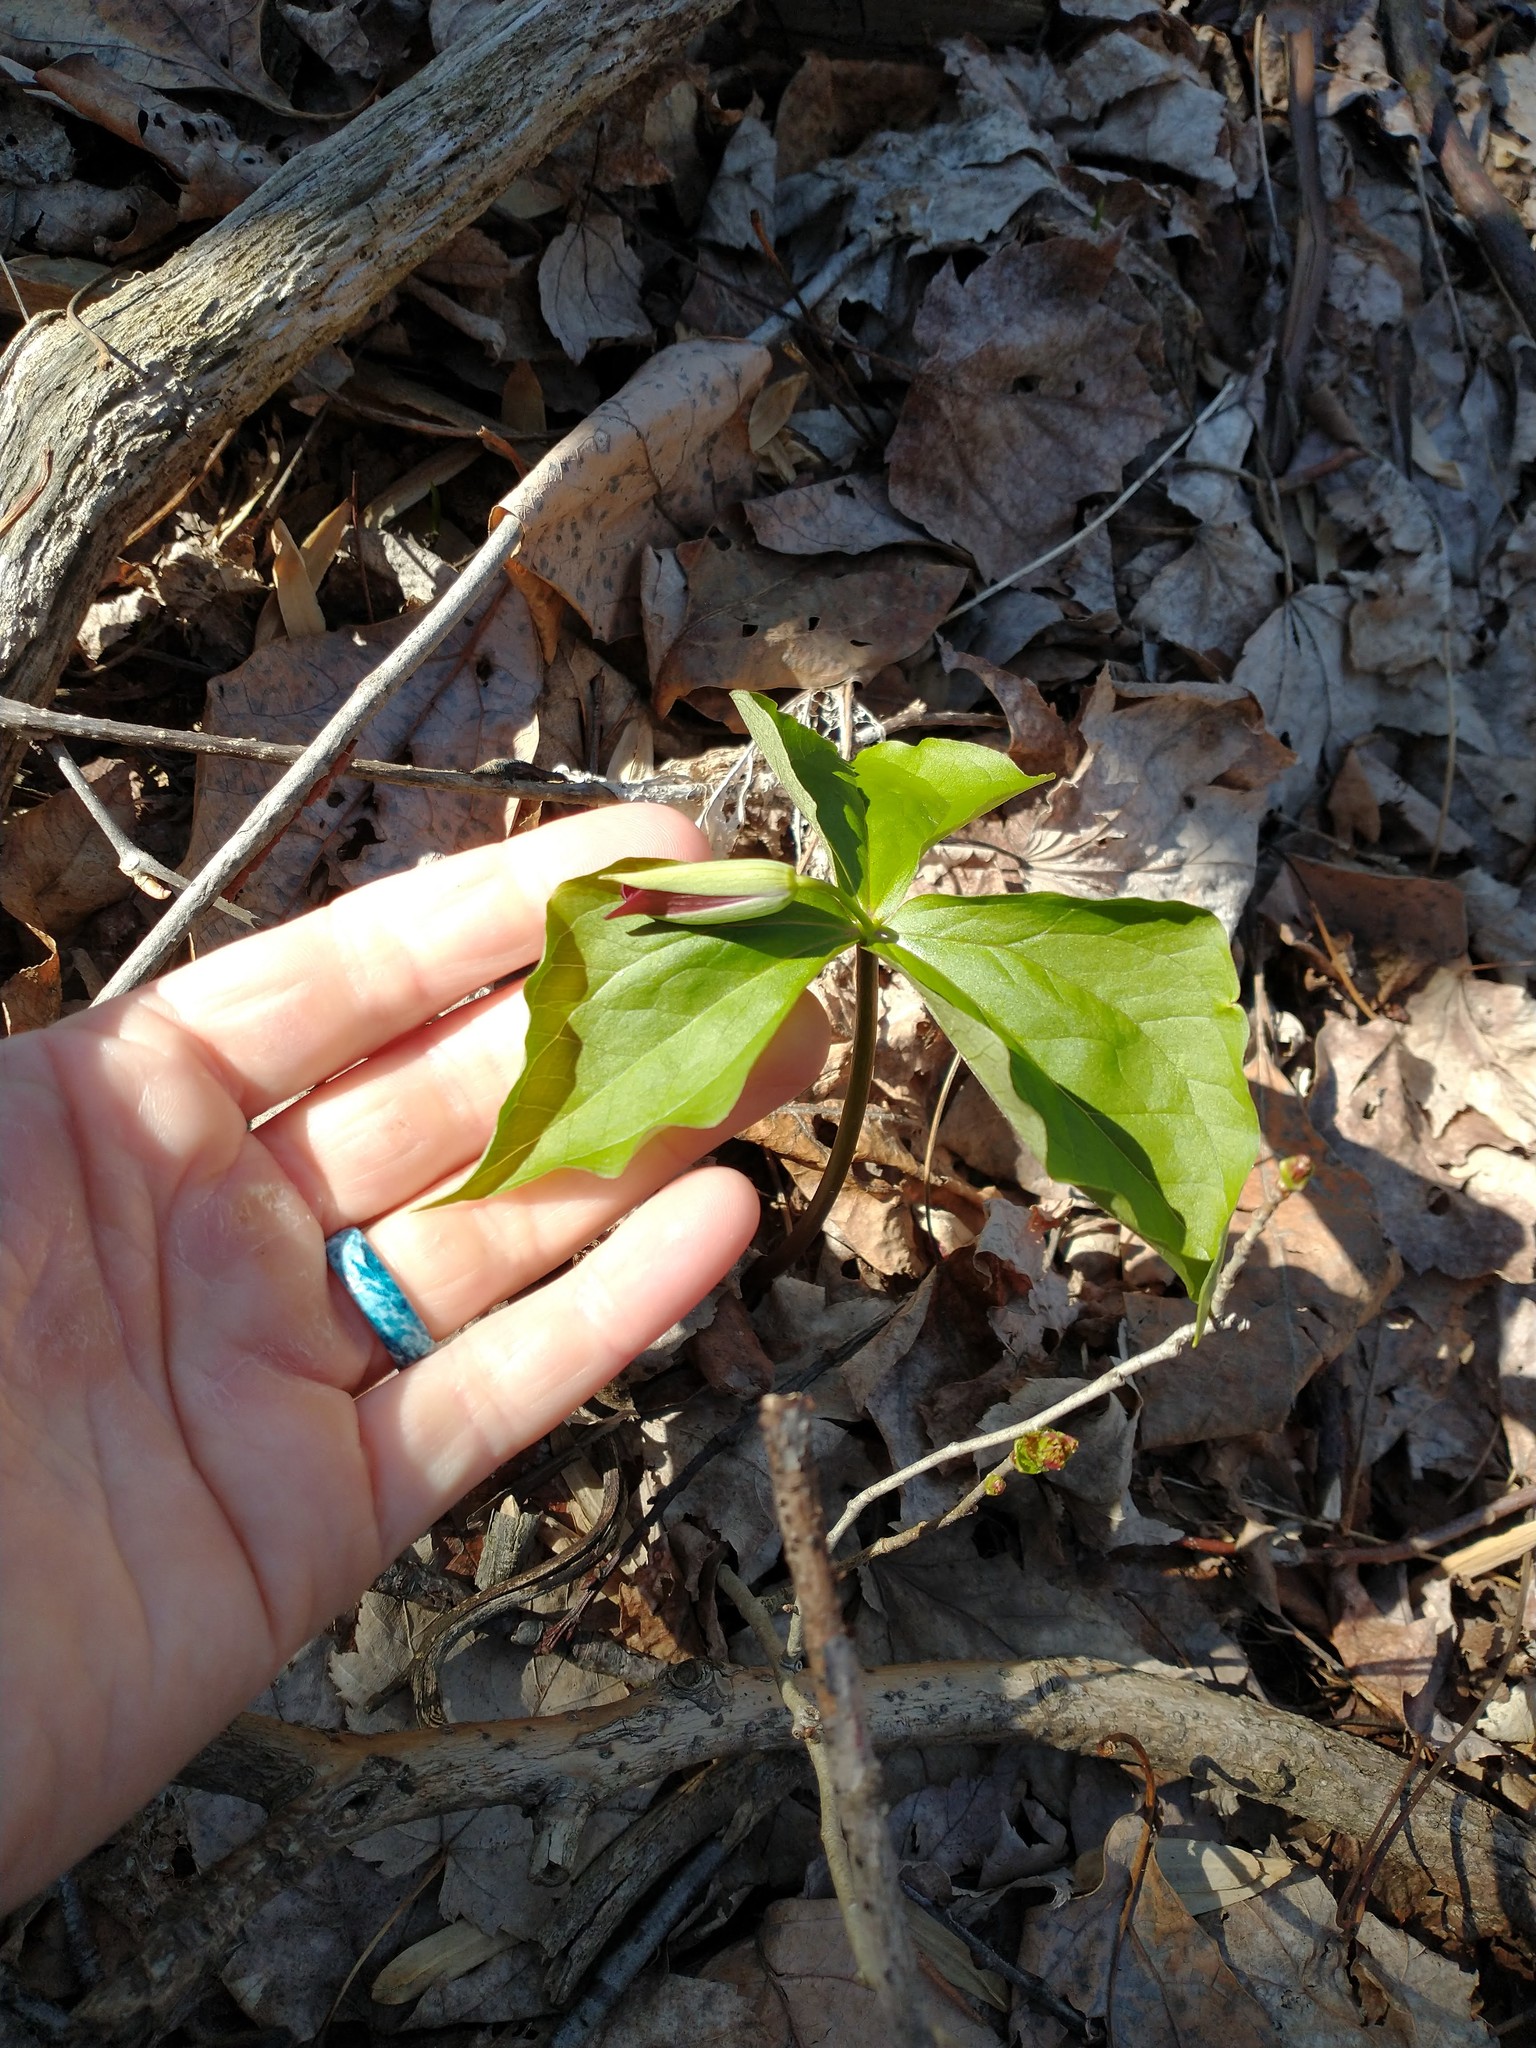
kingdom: Plantae
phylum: Tracheophyta
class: Liliopsida
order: Liliales
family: Melanthiaceae
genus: Trillium
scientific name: Trillium erectum
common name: Purple trillium
